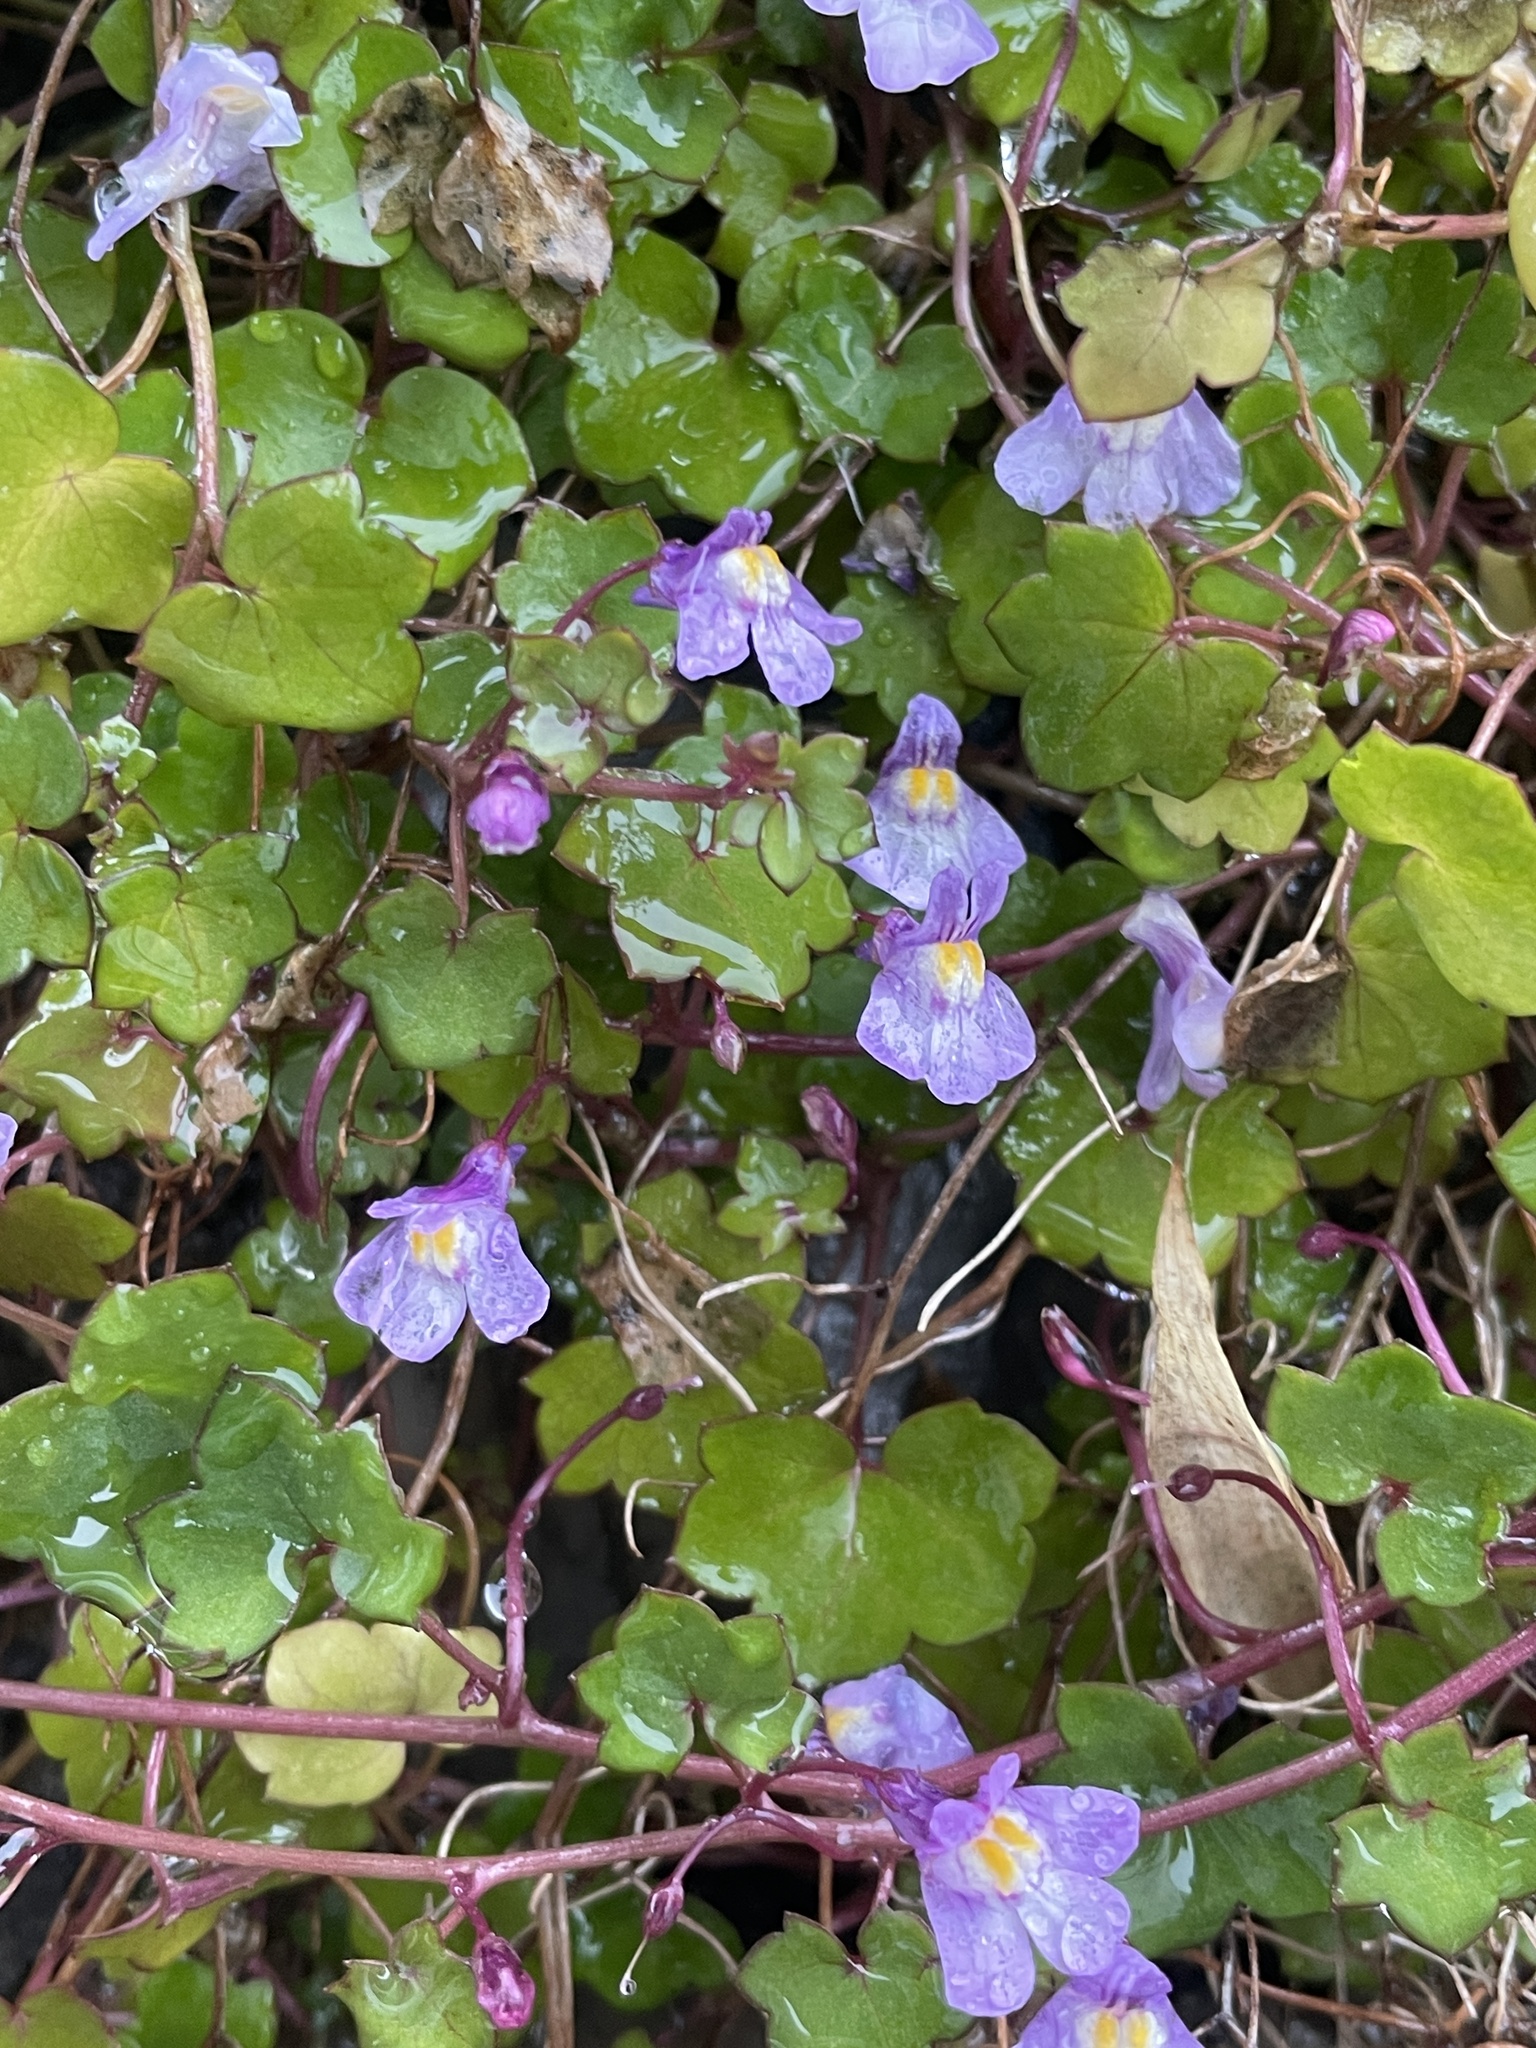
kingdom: Plantae
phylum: Tracheophyta
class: Magnoliopsida
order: Lamiales
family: Plantaginaceae
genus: Cymbalaria
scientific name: Cymbalaria muralis
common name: Ivy-leaved toadflax
